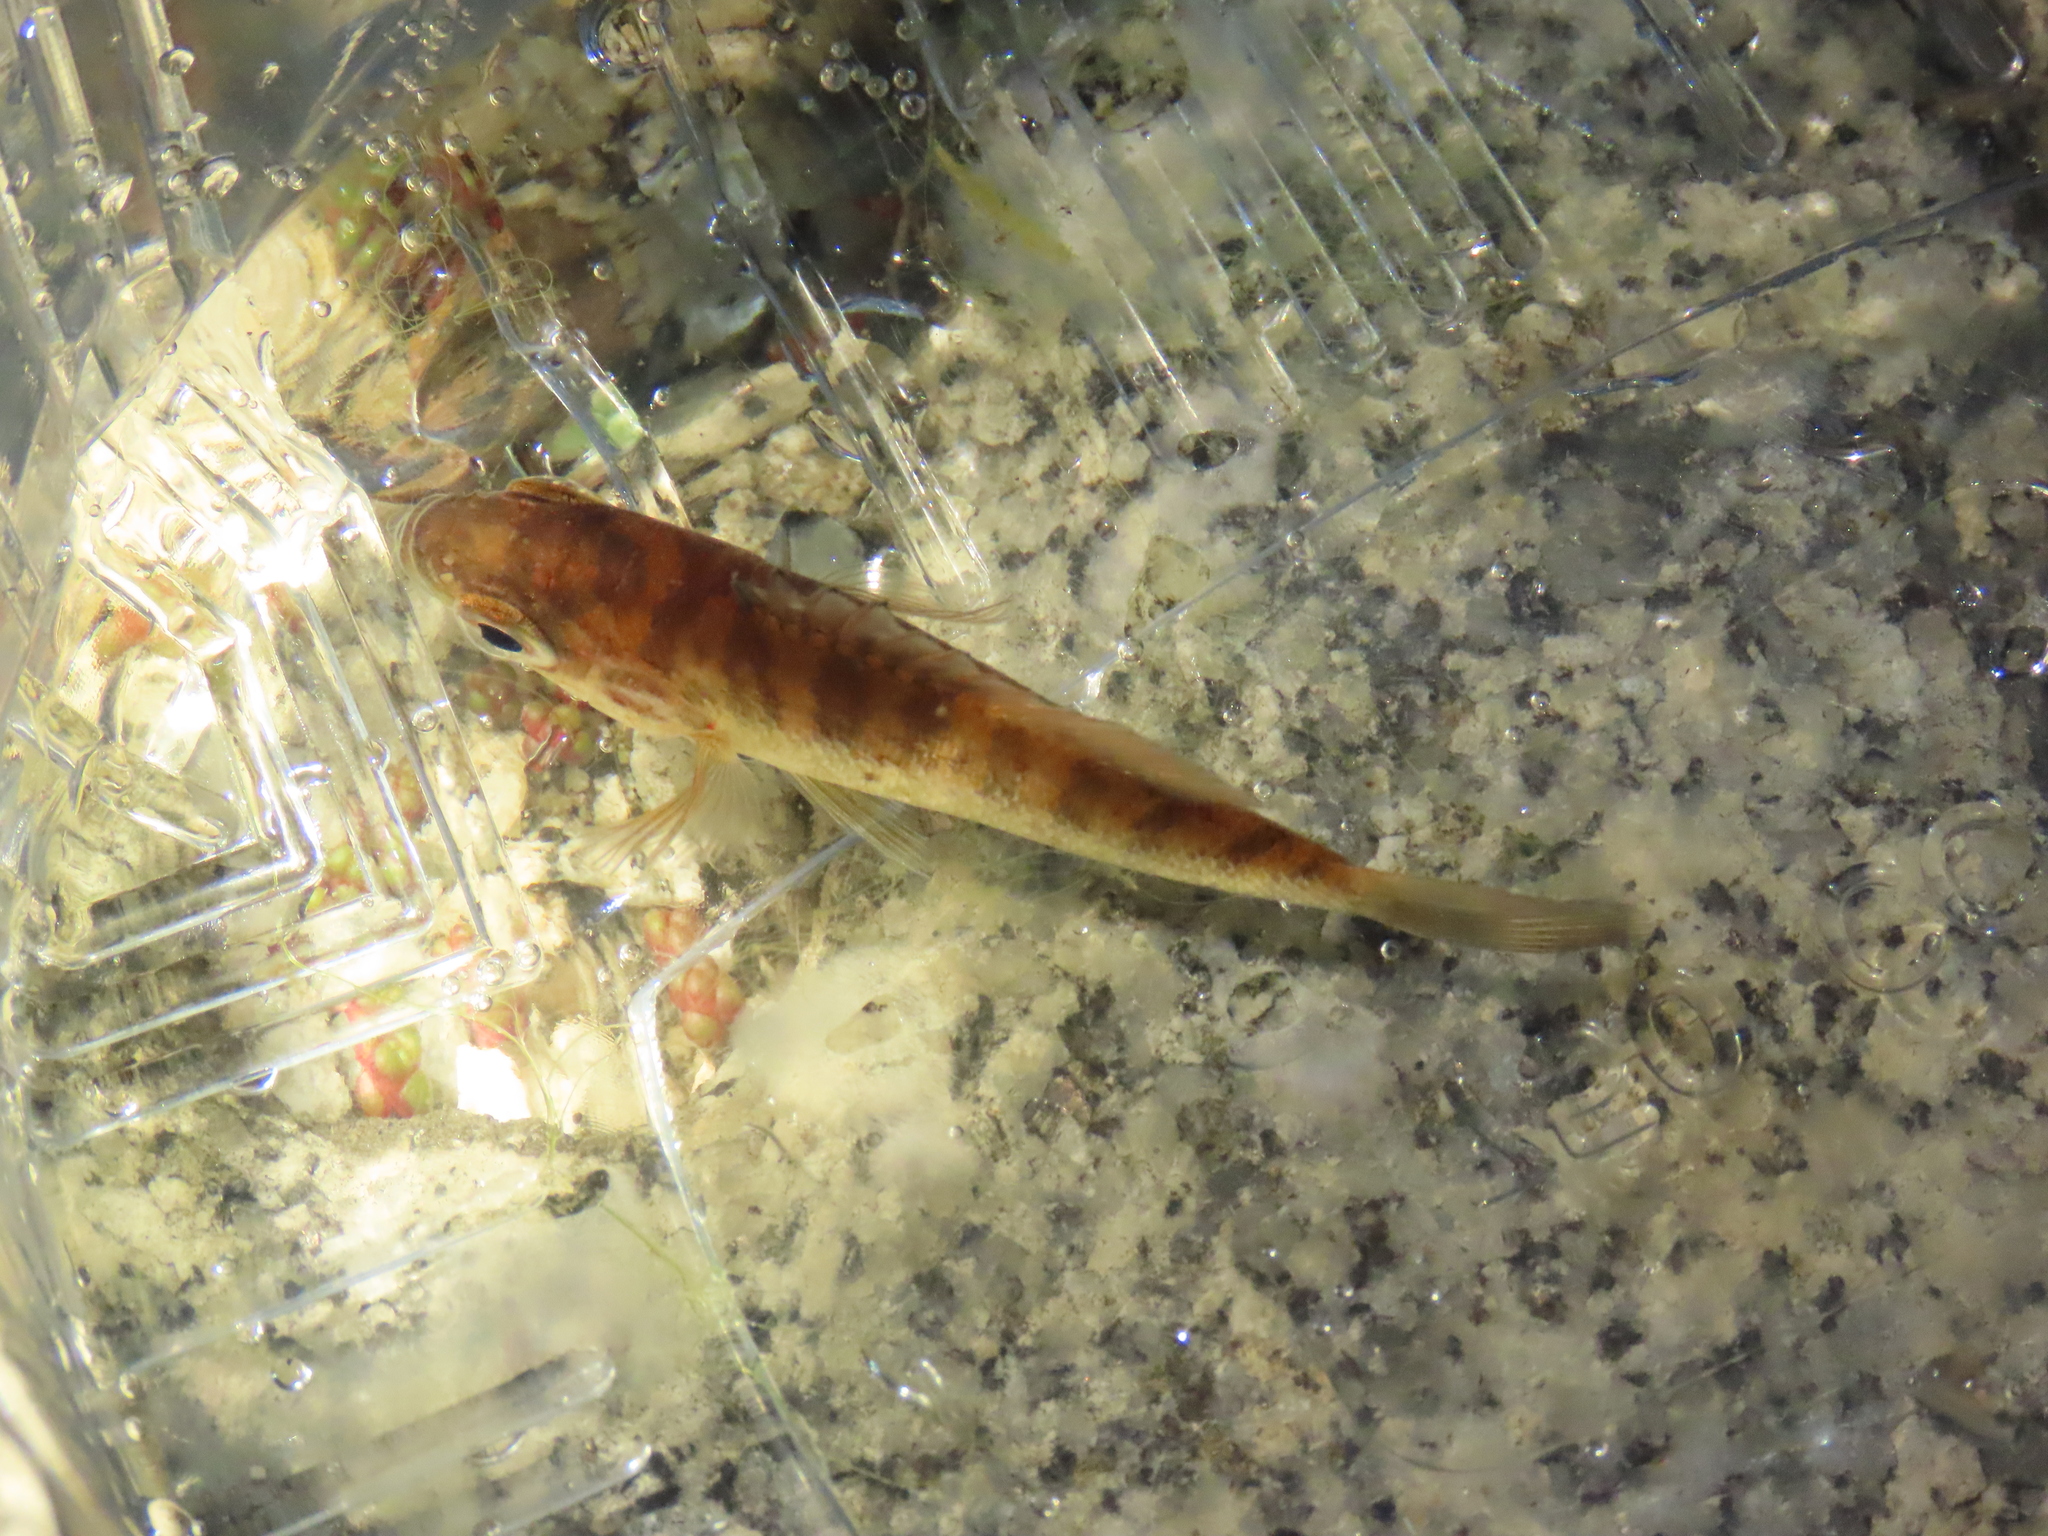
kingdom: Animalia
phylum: Chordata
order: Perciformes
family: Centrarchidae
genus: Lepomis
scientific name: Lepomis gibbosus
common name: Pumpkinseed
